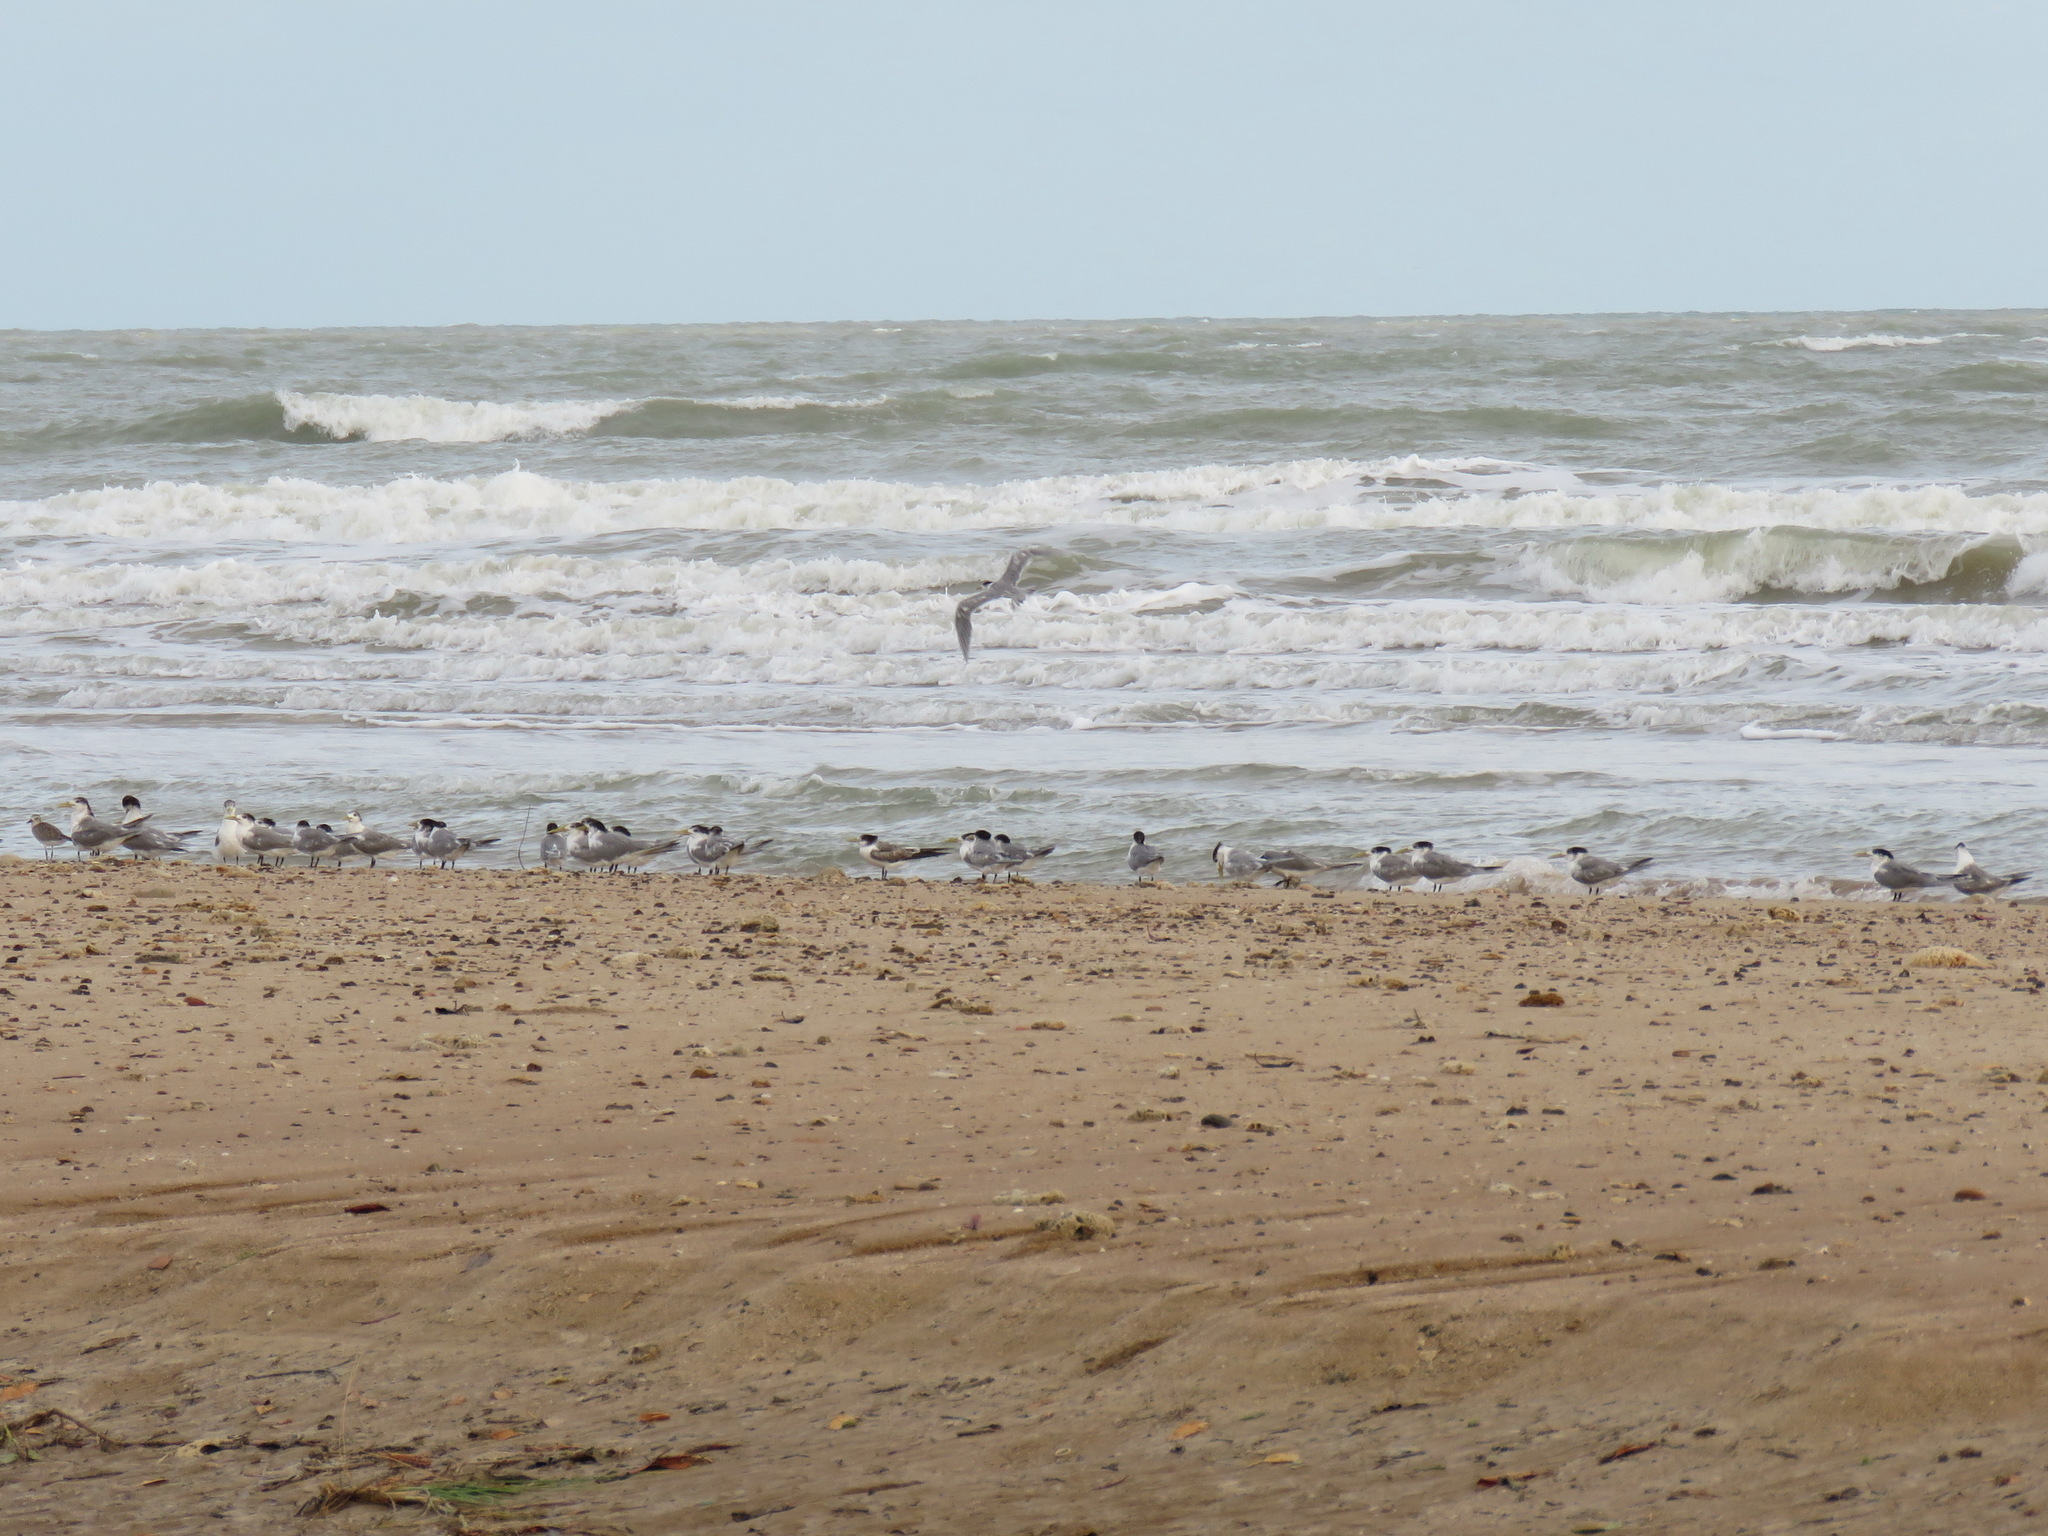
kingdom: Animalia
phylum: Chordata
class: Aves
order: Charadriiformes
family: Laridae
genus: Thalasseus
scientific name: Thalasseus bergii
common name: Greater crested tern
